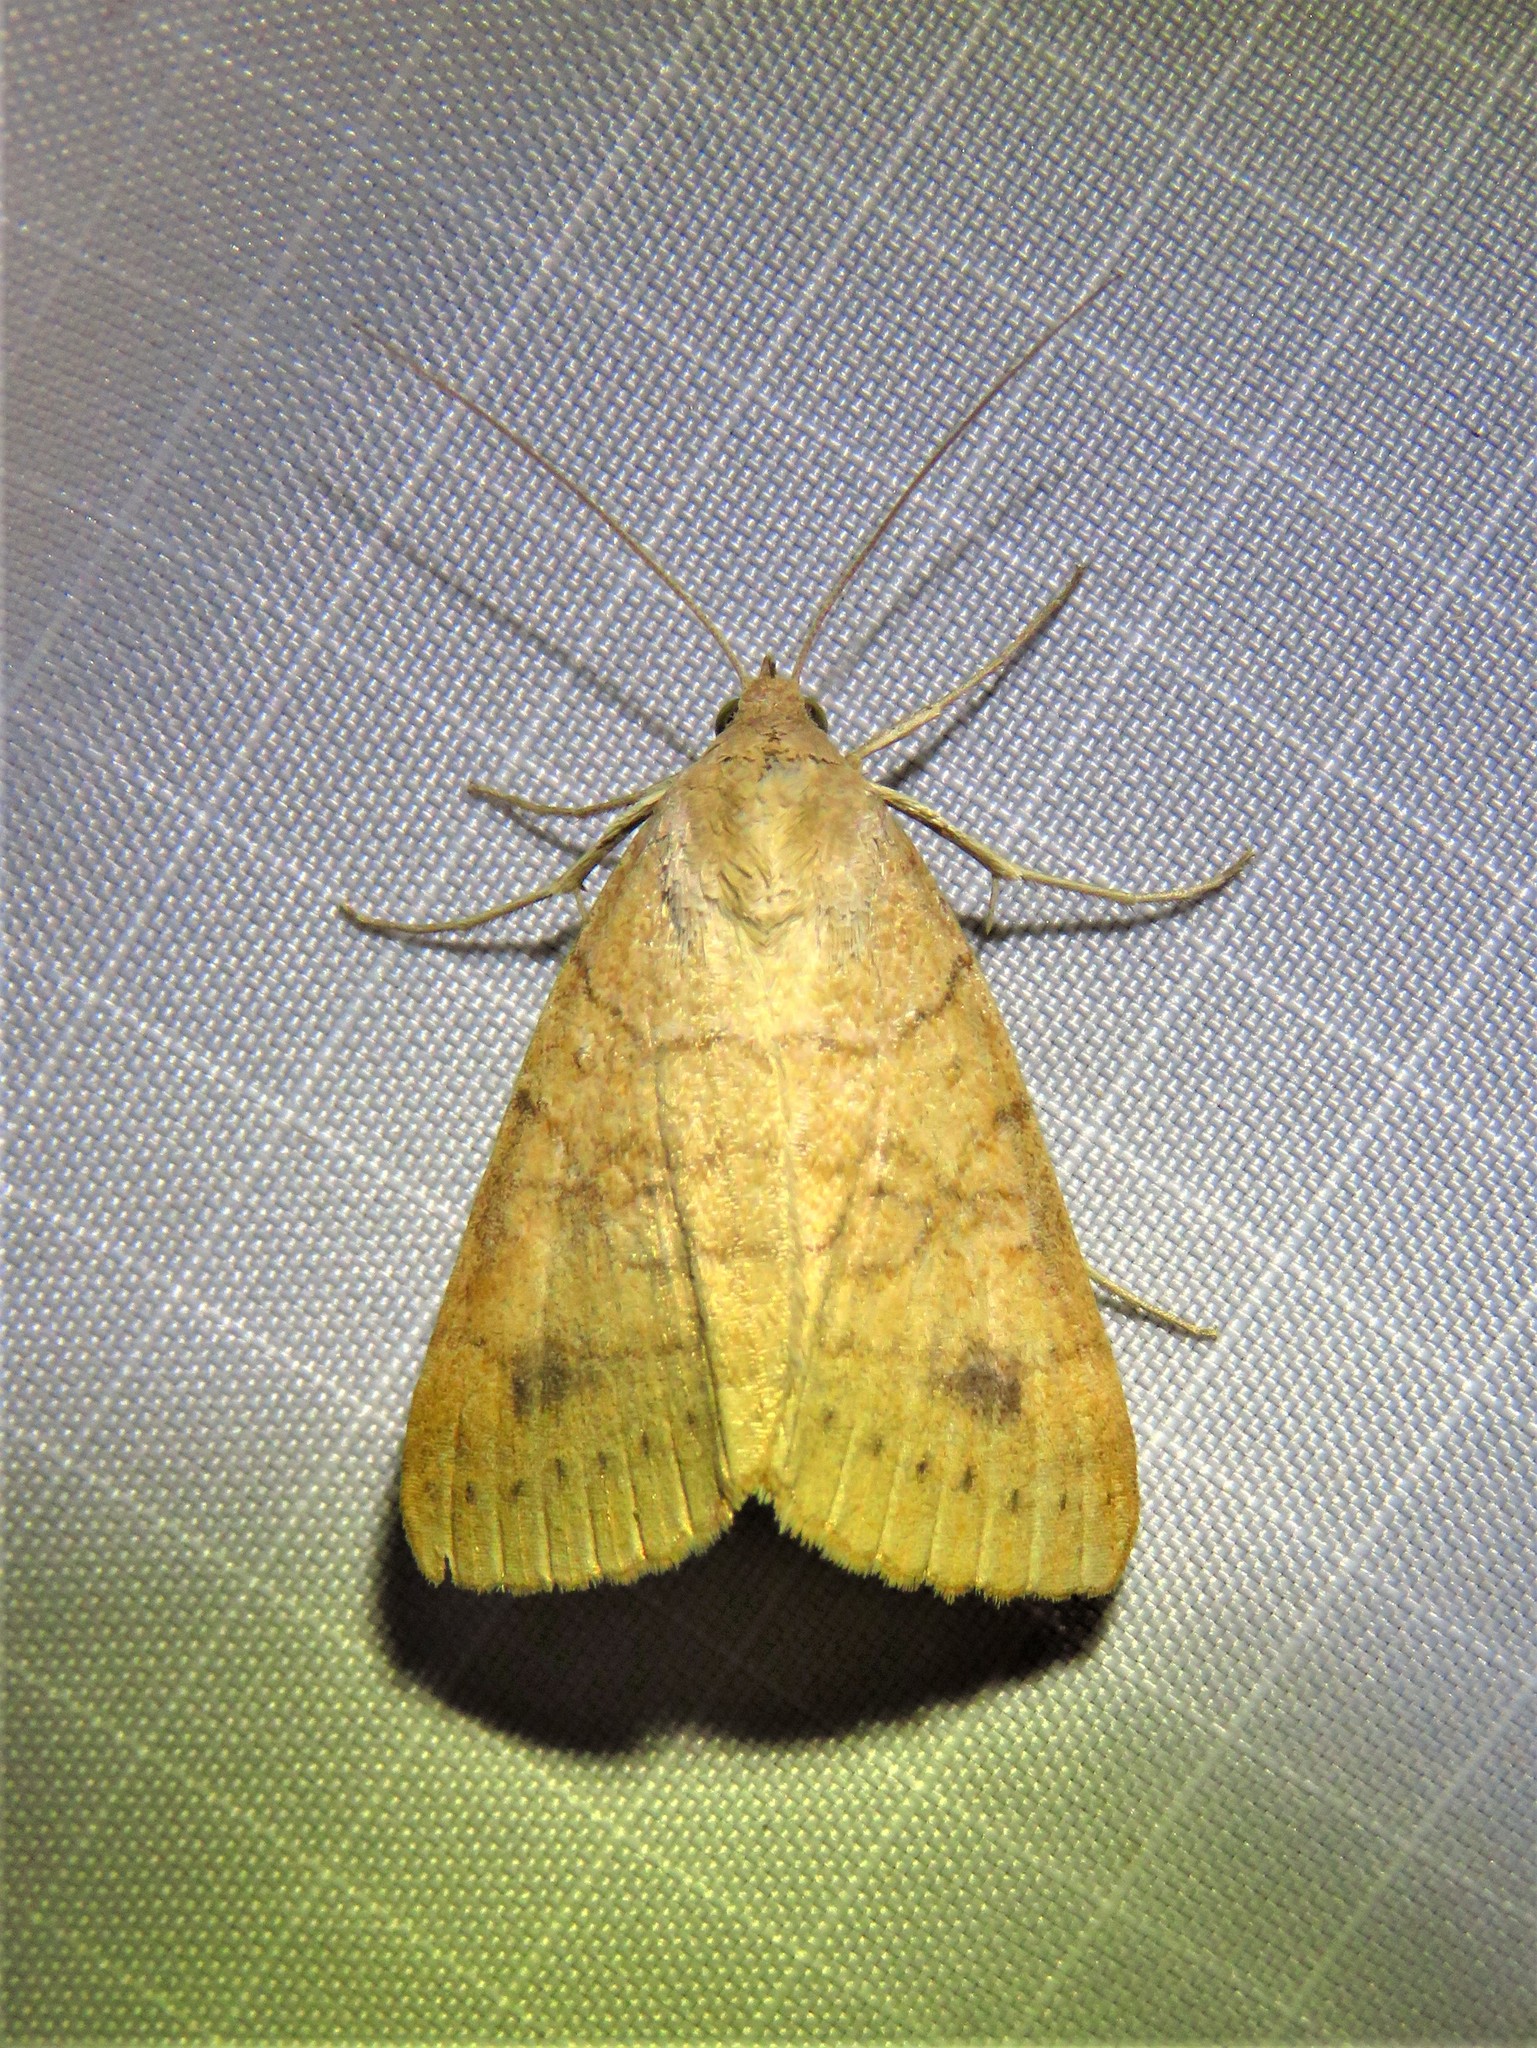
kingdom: Animalia
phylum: Arthropoda
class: Insecta
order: Lepidoptera
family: Erebidae
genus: Caenurgia
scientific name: Caenurgia chloropha
